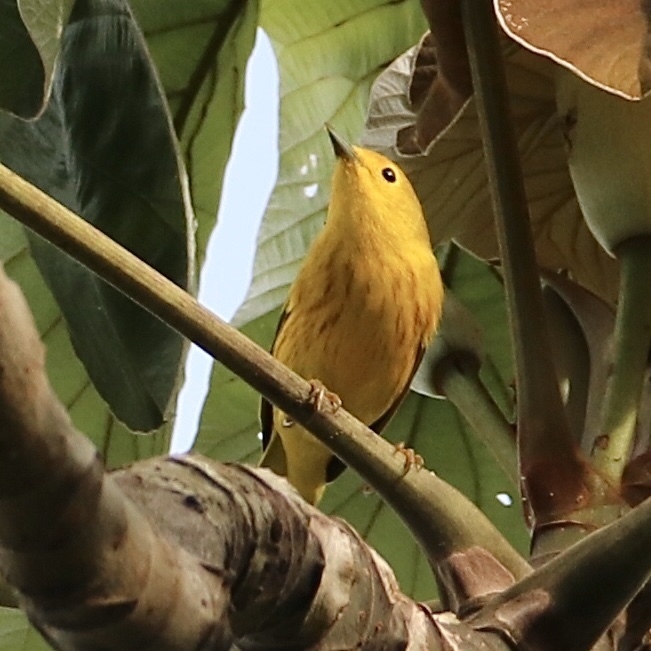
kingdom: Animalia
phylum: Chordata
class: Aves
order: Passeriformes
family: Parulidae
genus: Setophaga
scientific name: Setophaga petechia
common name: Yellow warbler
